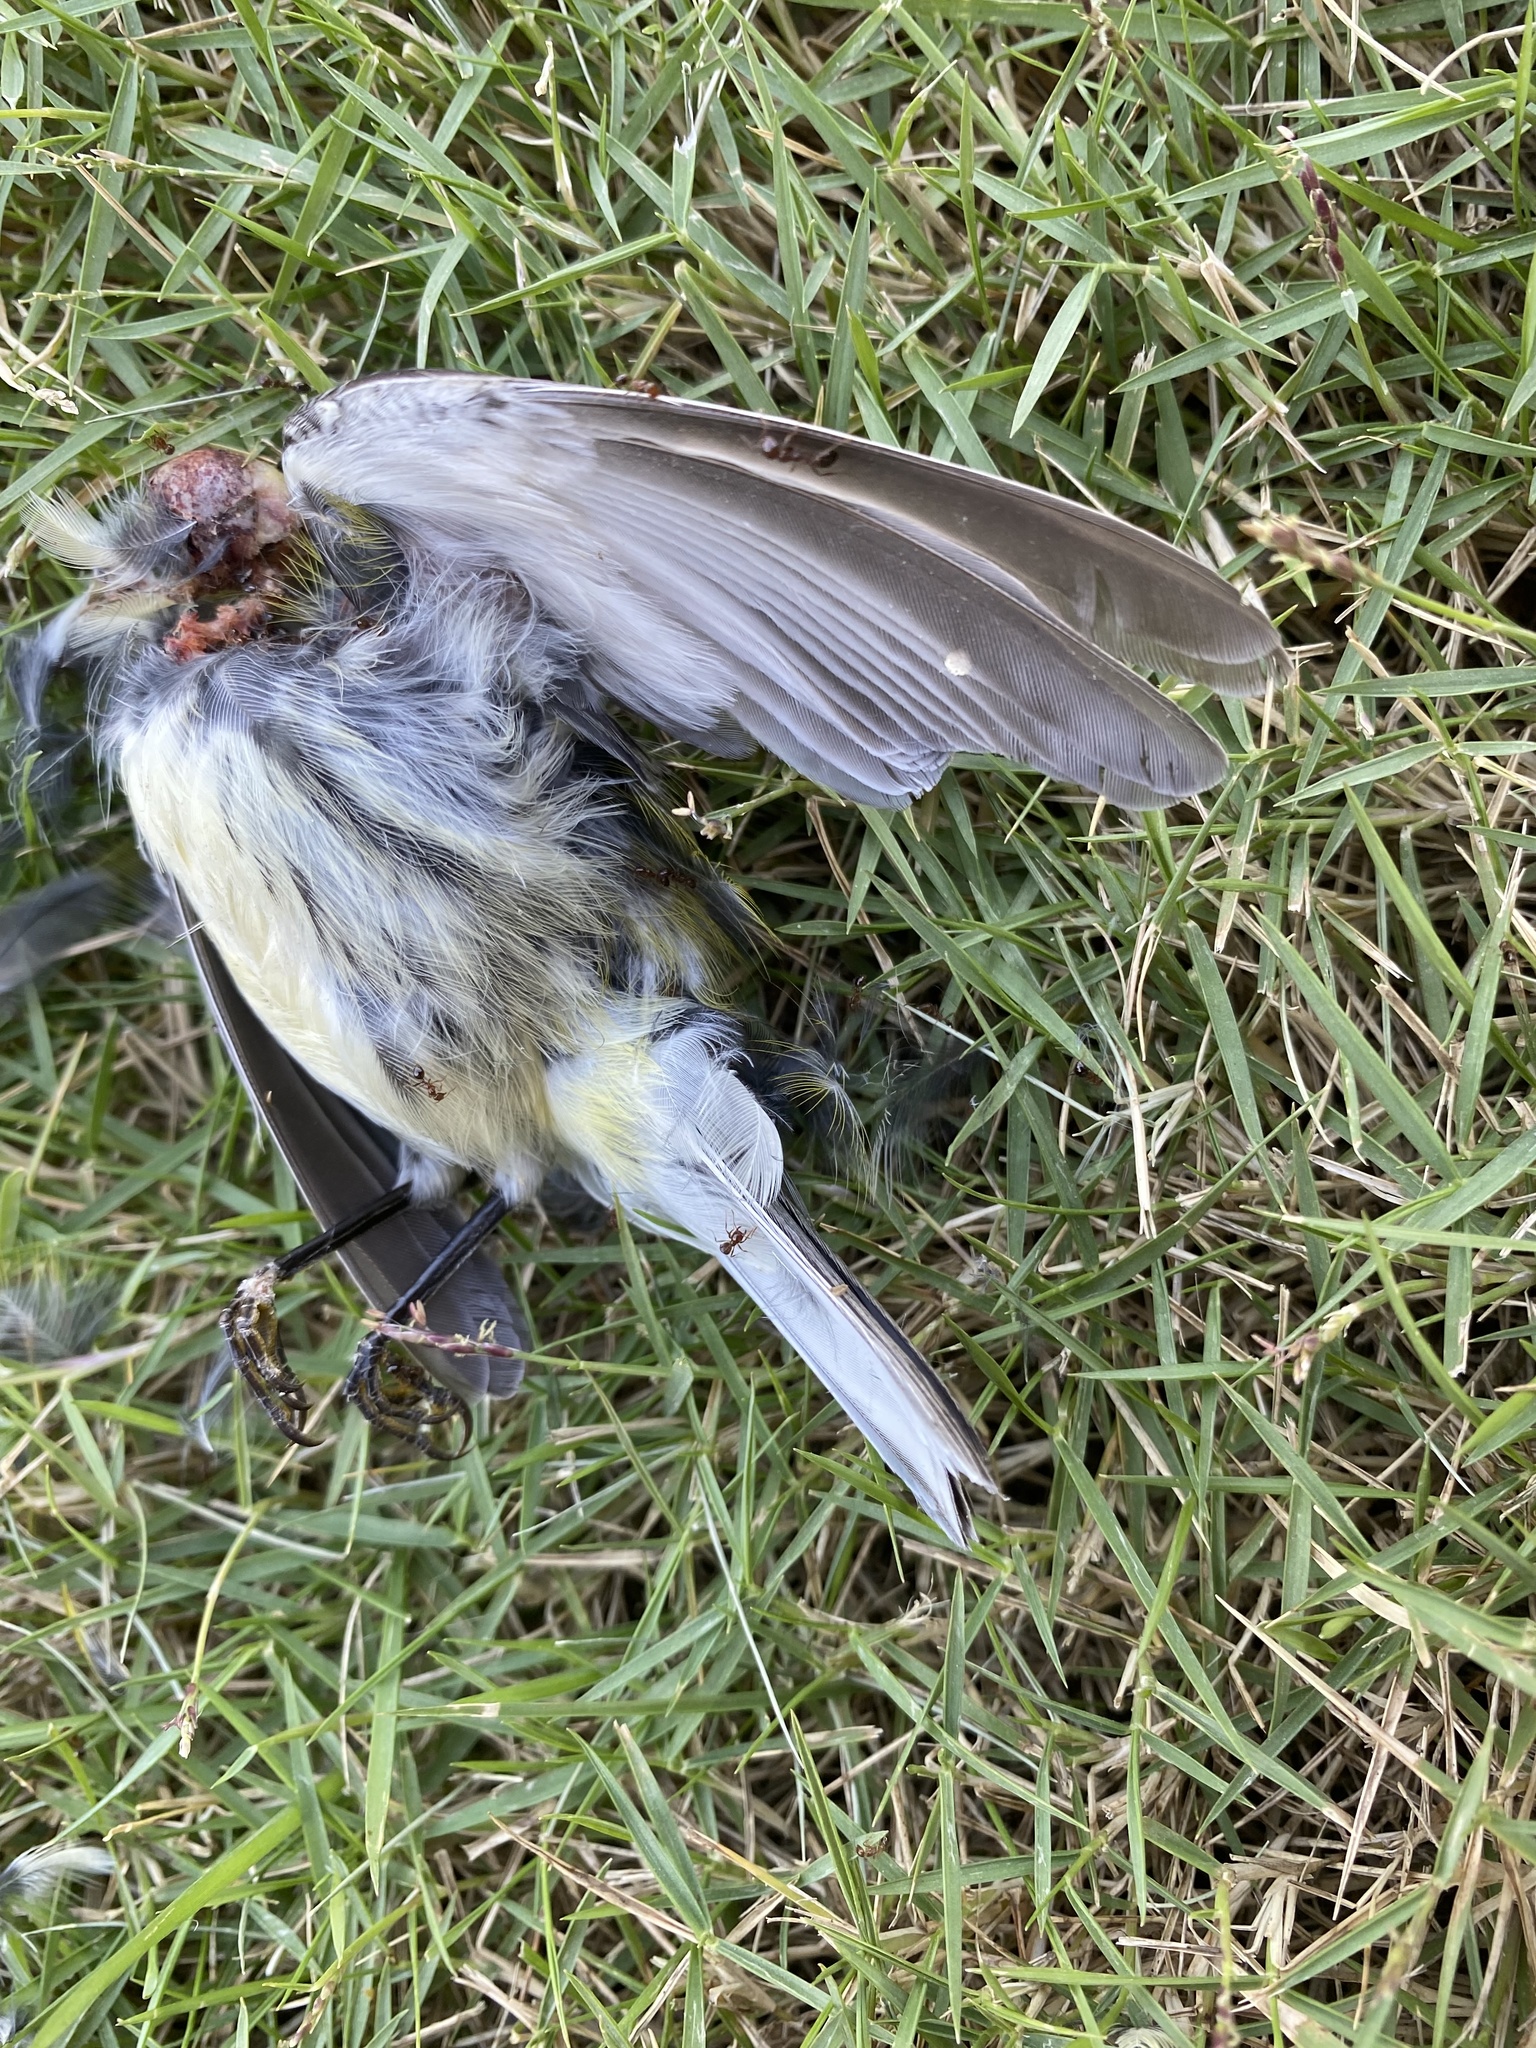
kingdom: Animalia
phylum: Chordata
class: Aves
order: Passeriformes
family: Parulidae
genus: Setophaga
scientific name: Setophaga virens
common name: Black-throated green warbler
